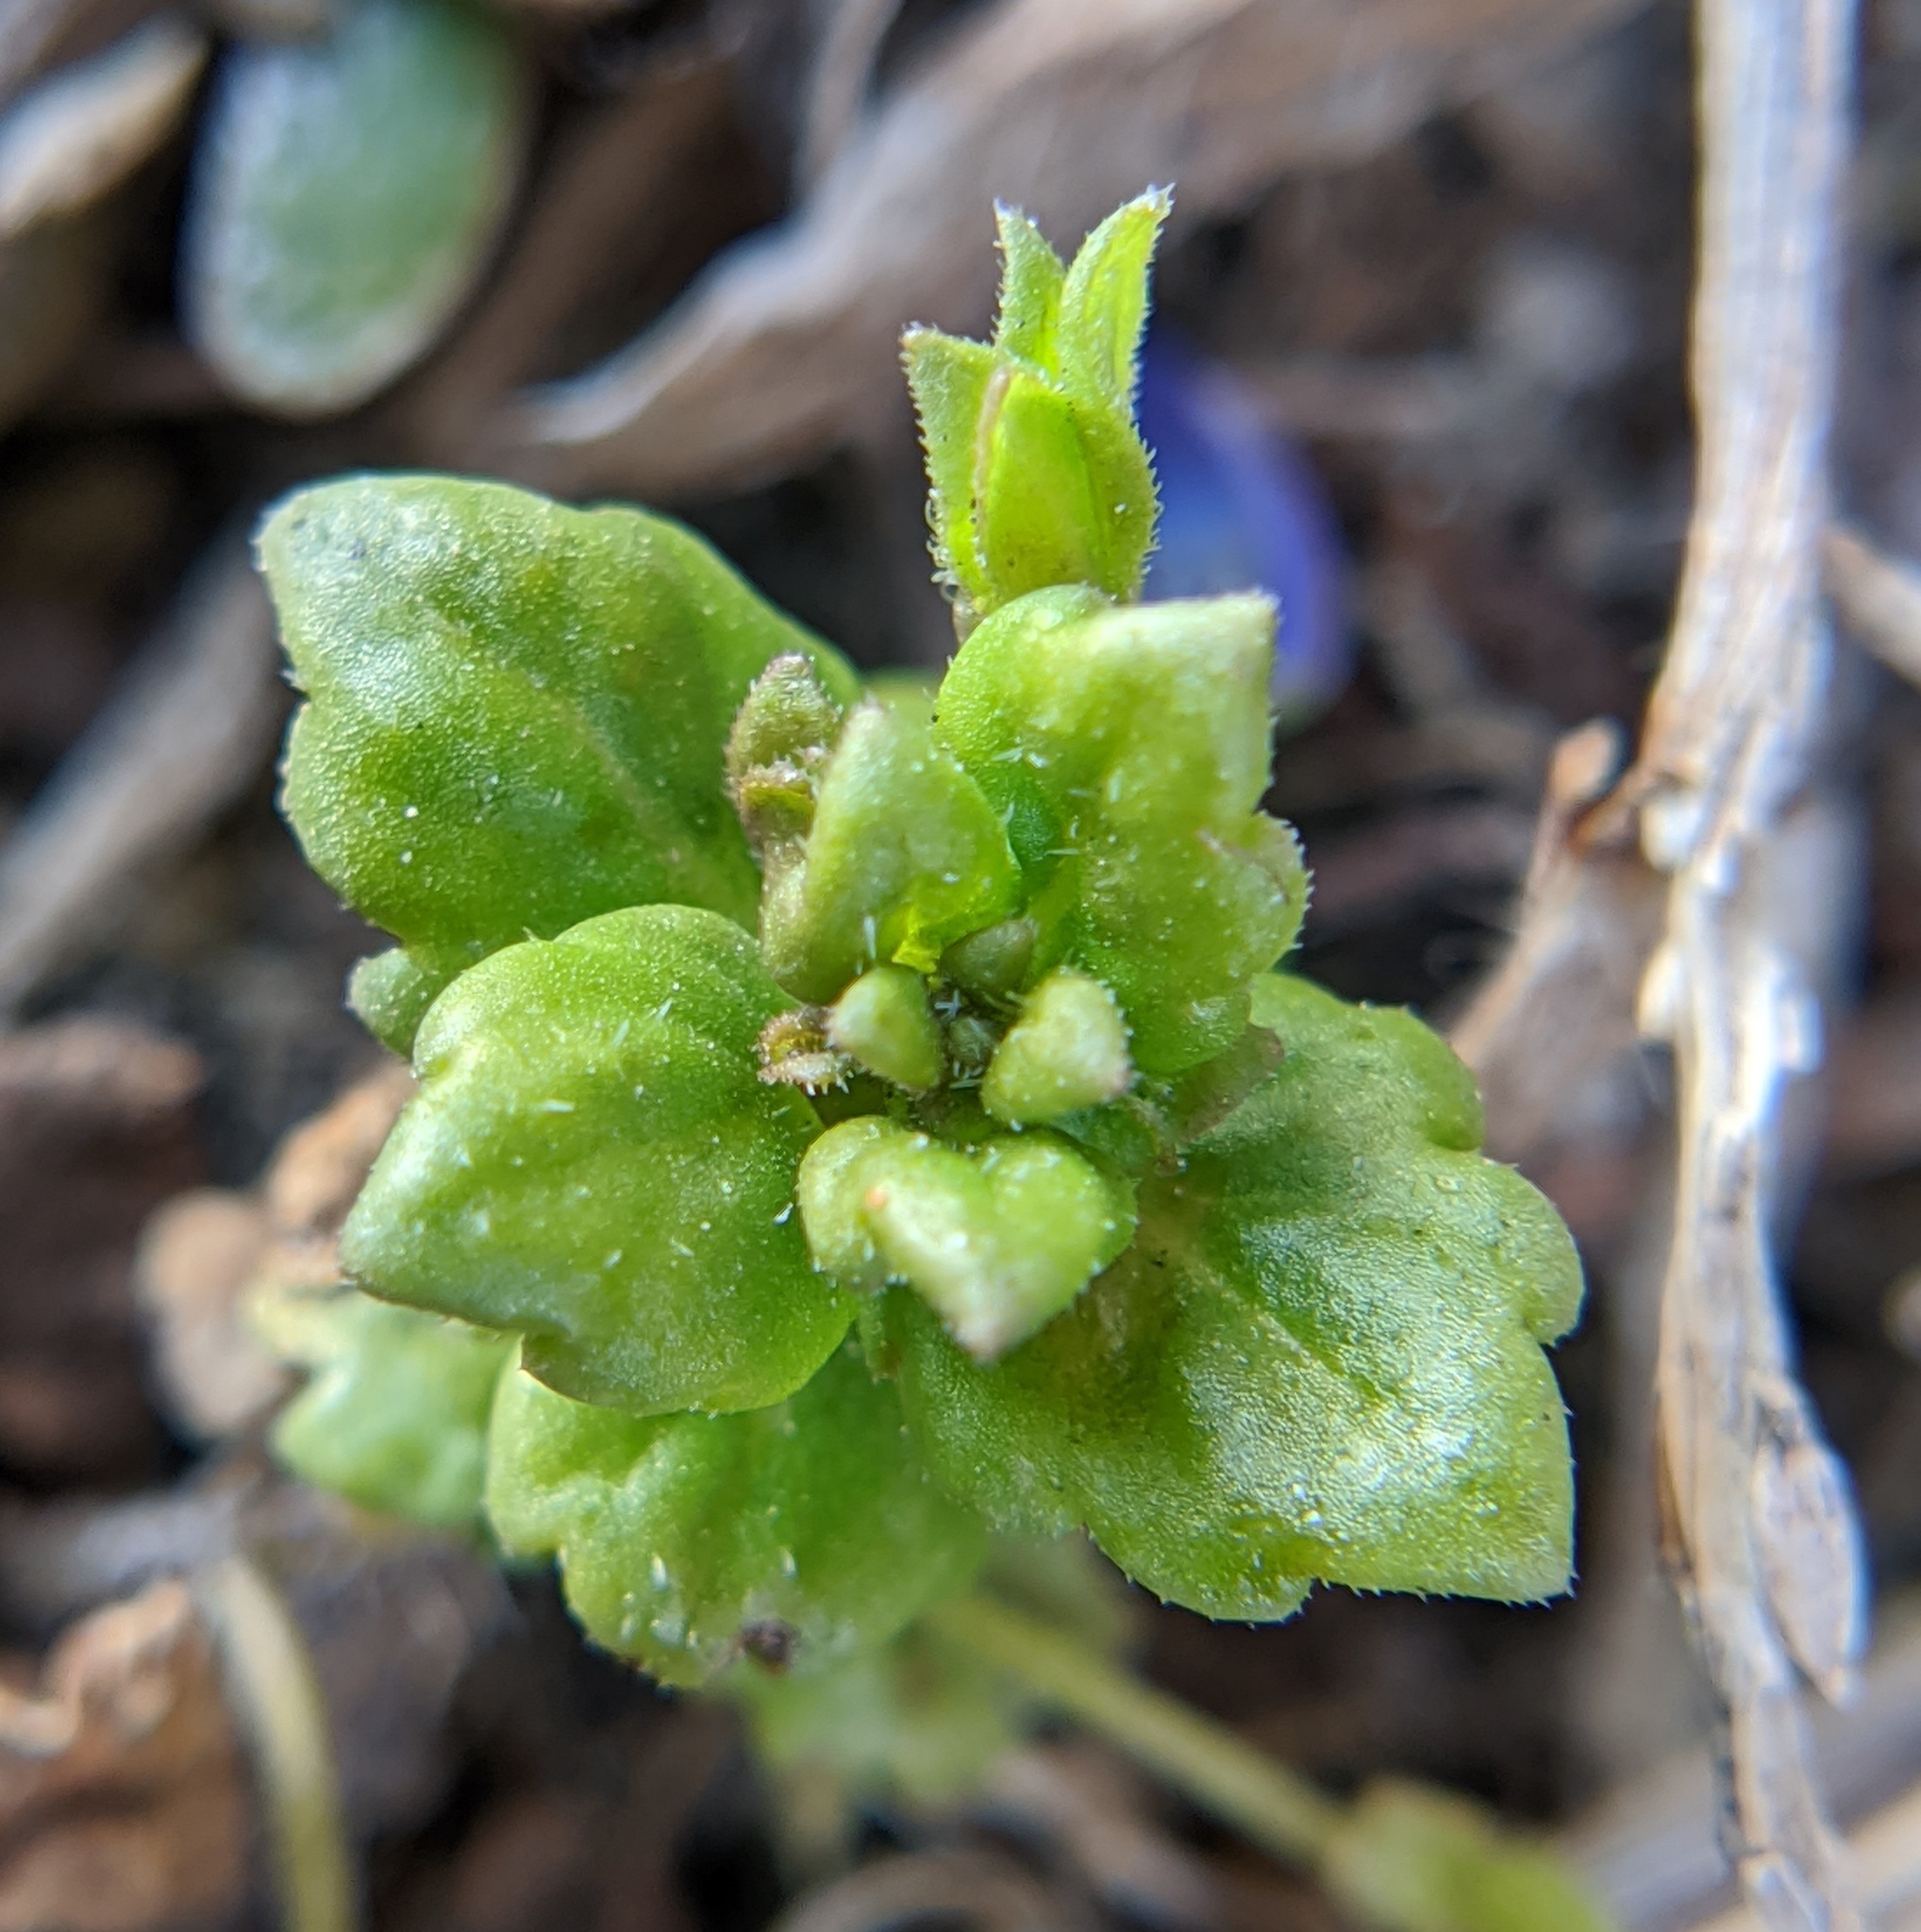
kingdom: Plantae
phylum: Tracheophyta
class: Magnoliopsida
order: Lamiales
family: Plantaginaceae
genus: Veronica
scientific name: Veronica polita
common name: Grey field-speedwell
